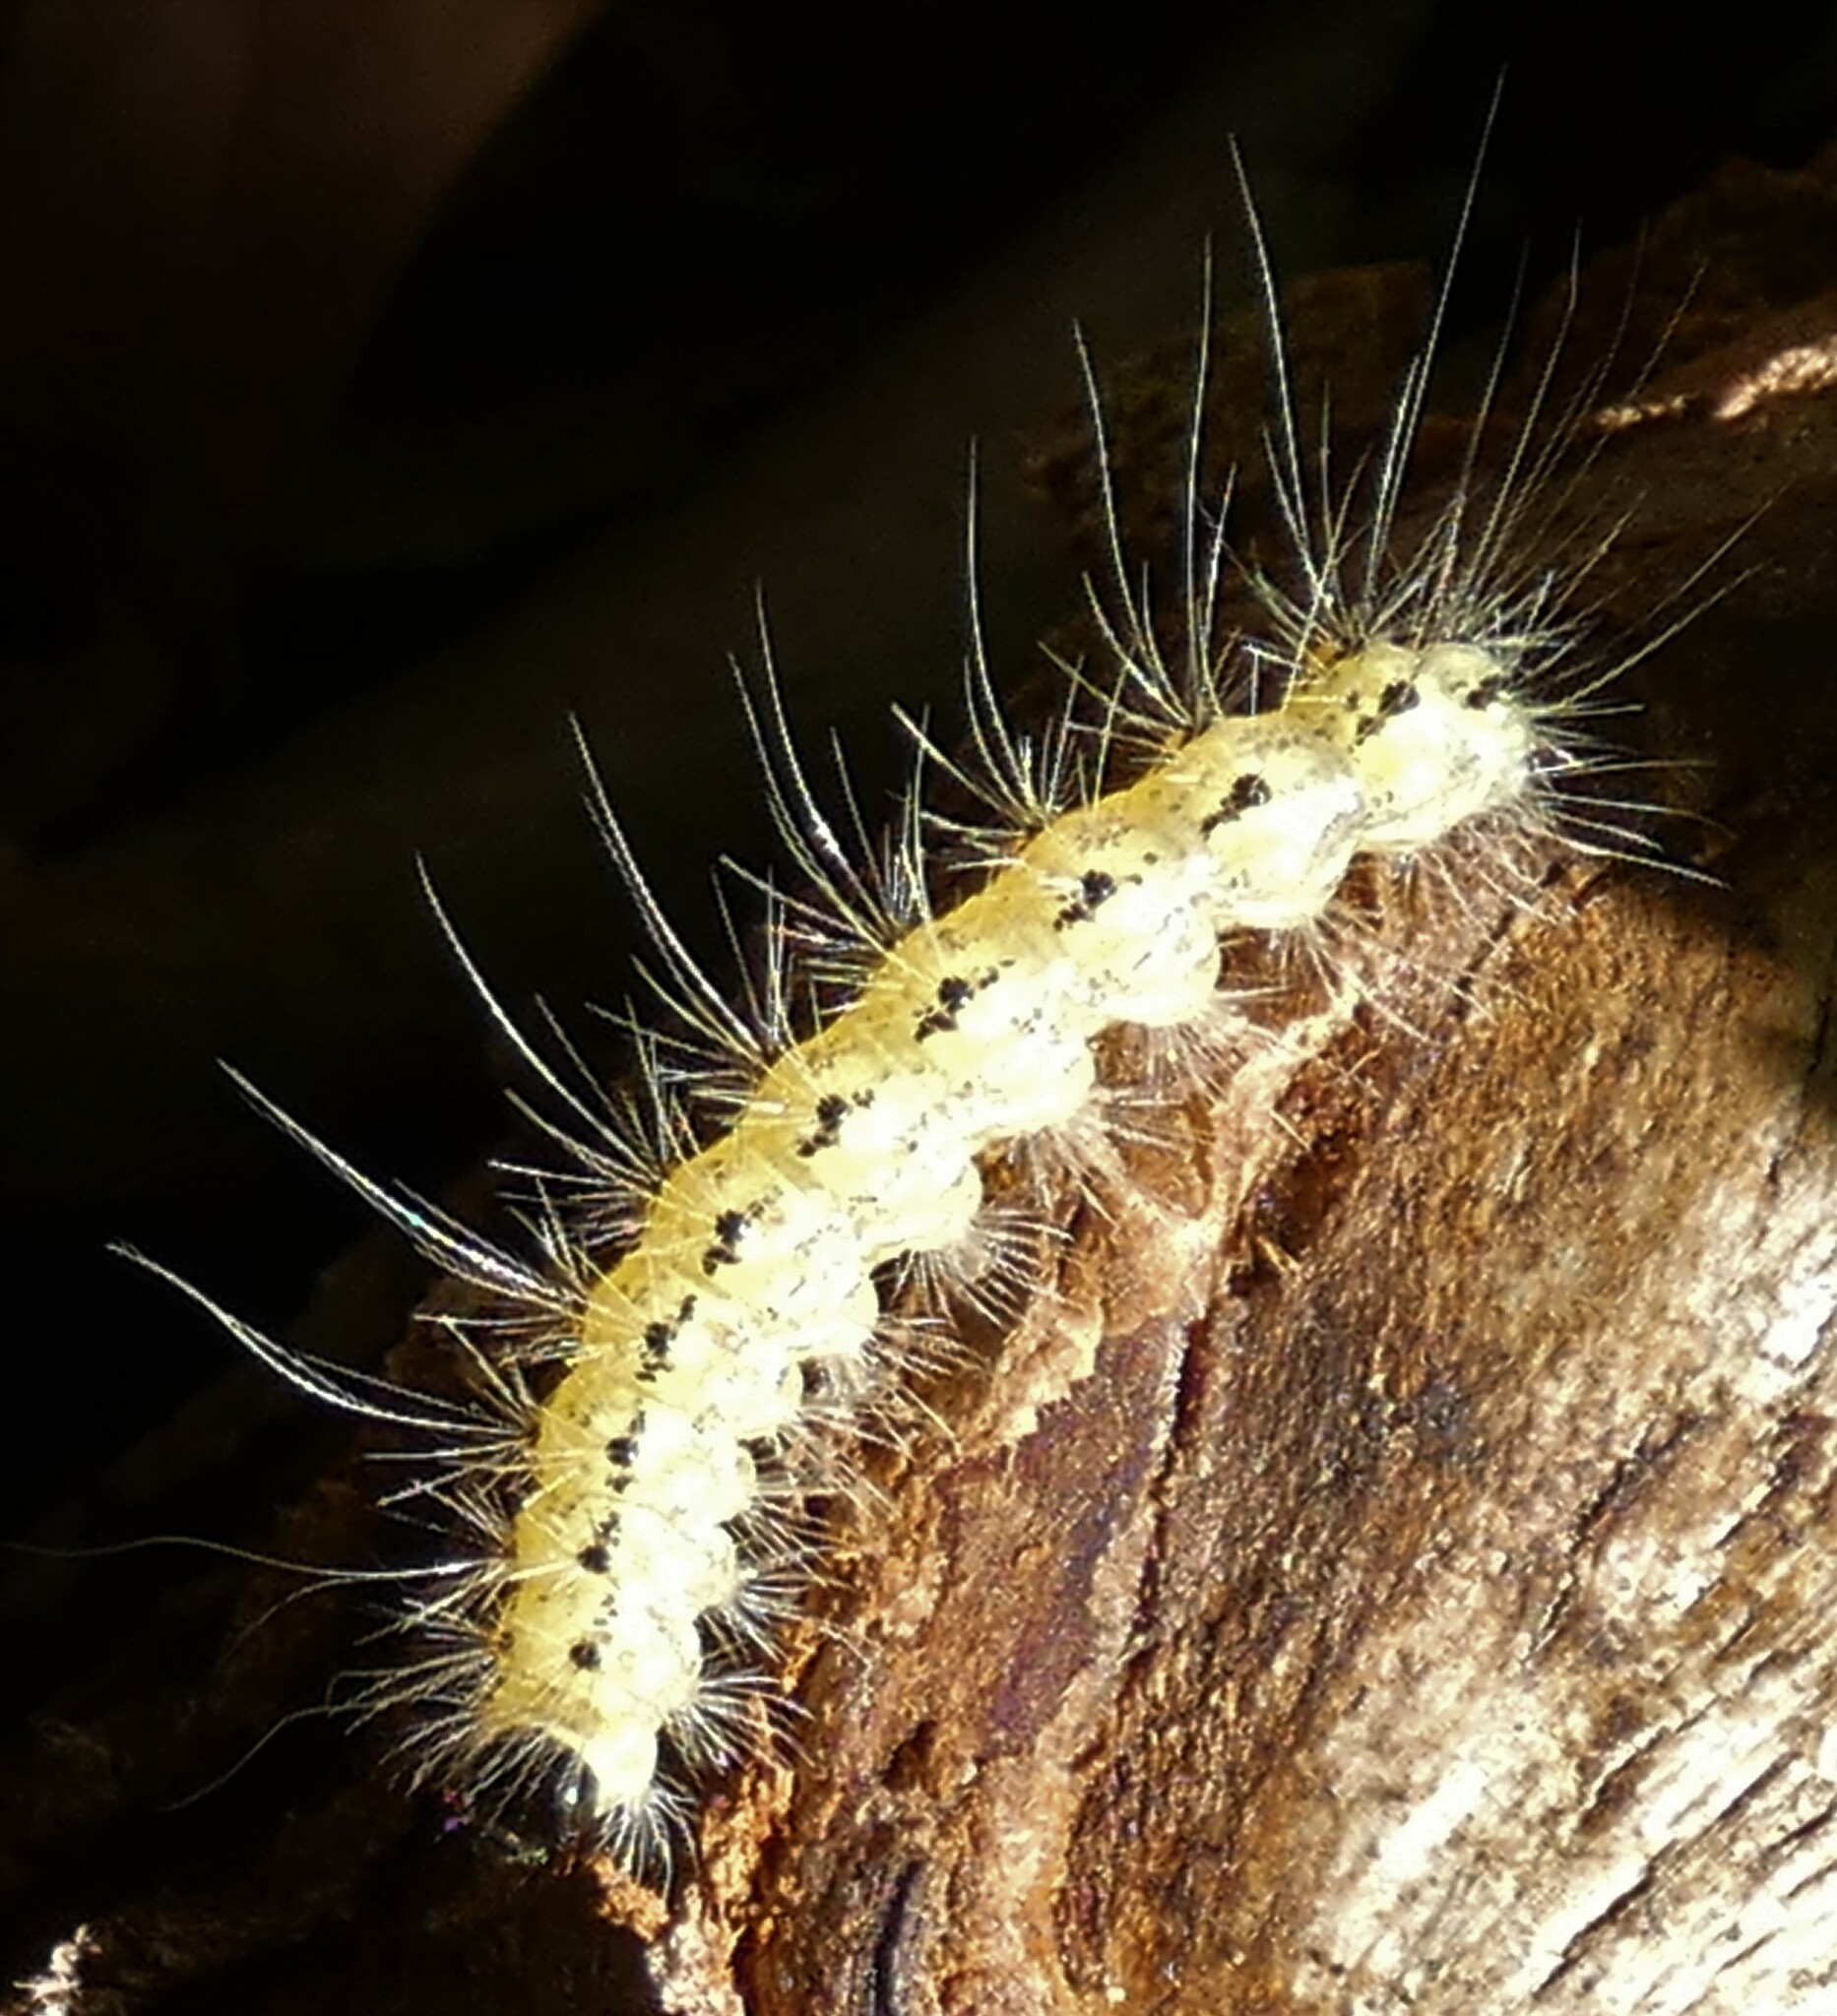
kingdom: Animalia
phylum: Arthropoda
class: Insecta
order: Lepidoptera
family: Erebidae
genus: Hyphantria
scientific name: Hyphantria cunea
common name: American white moth
